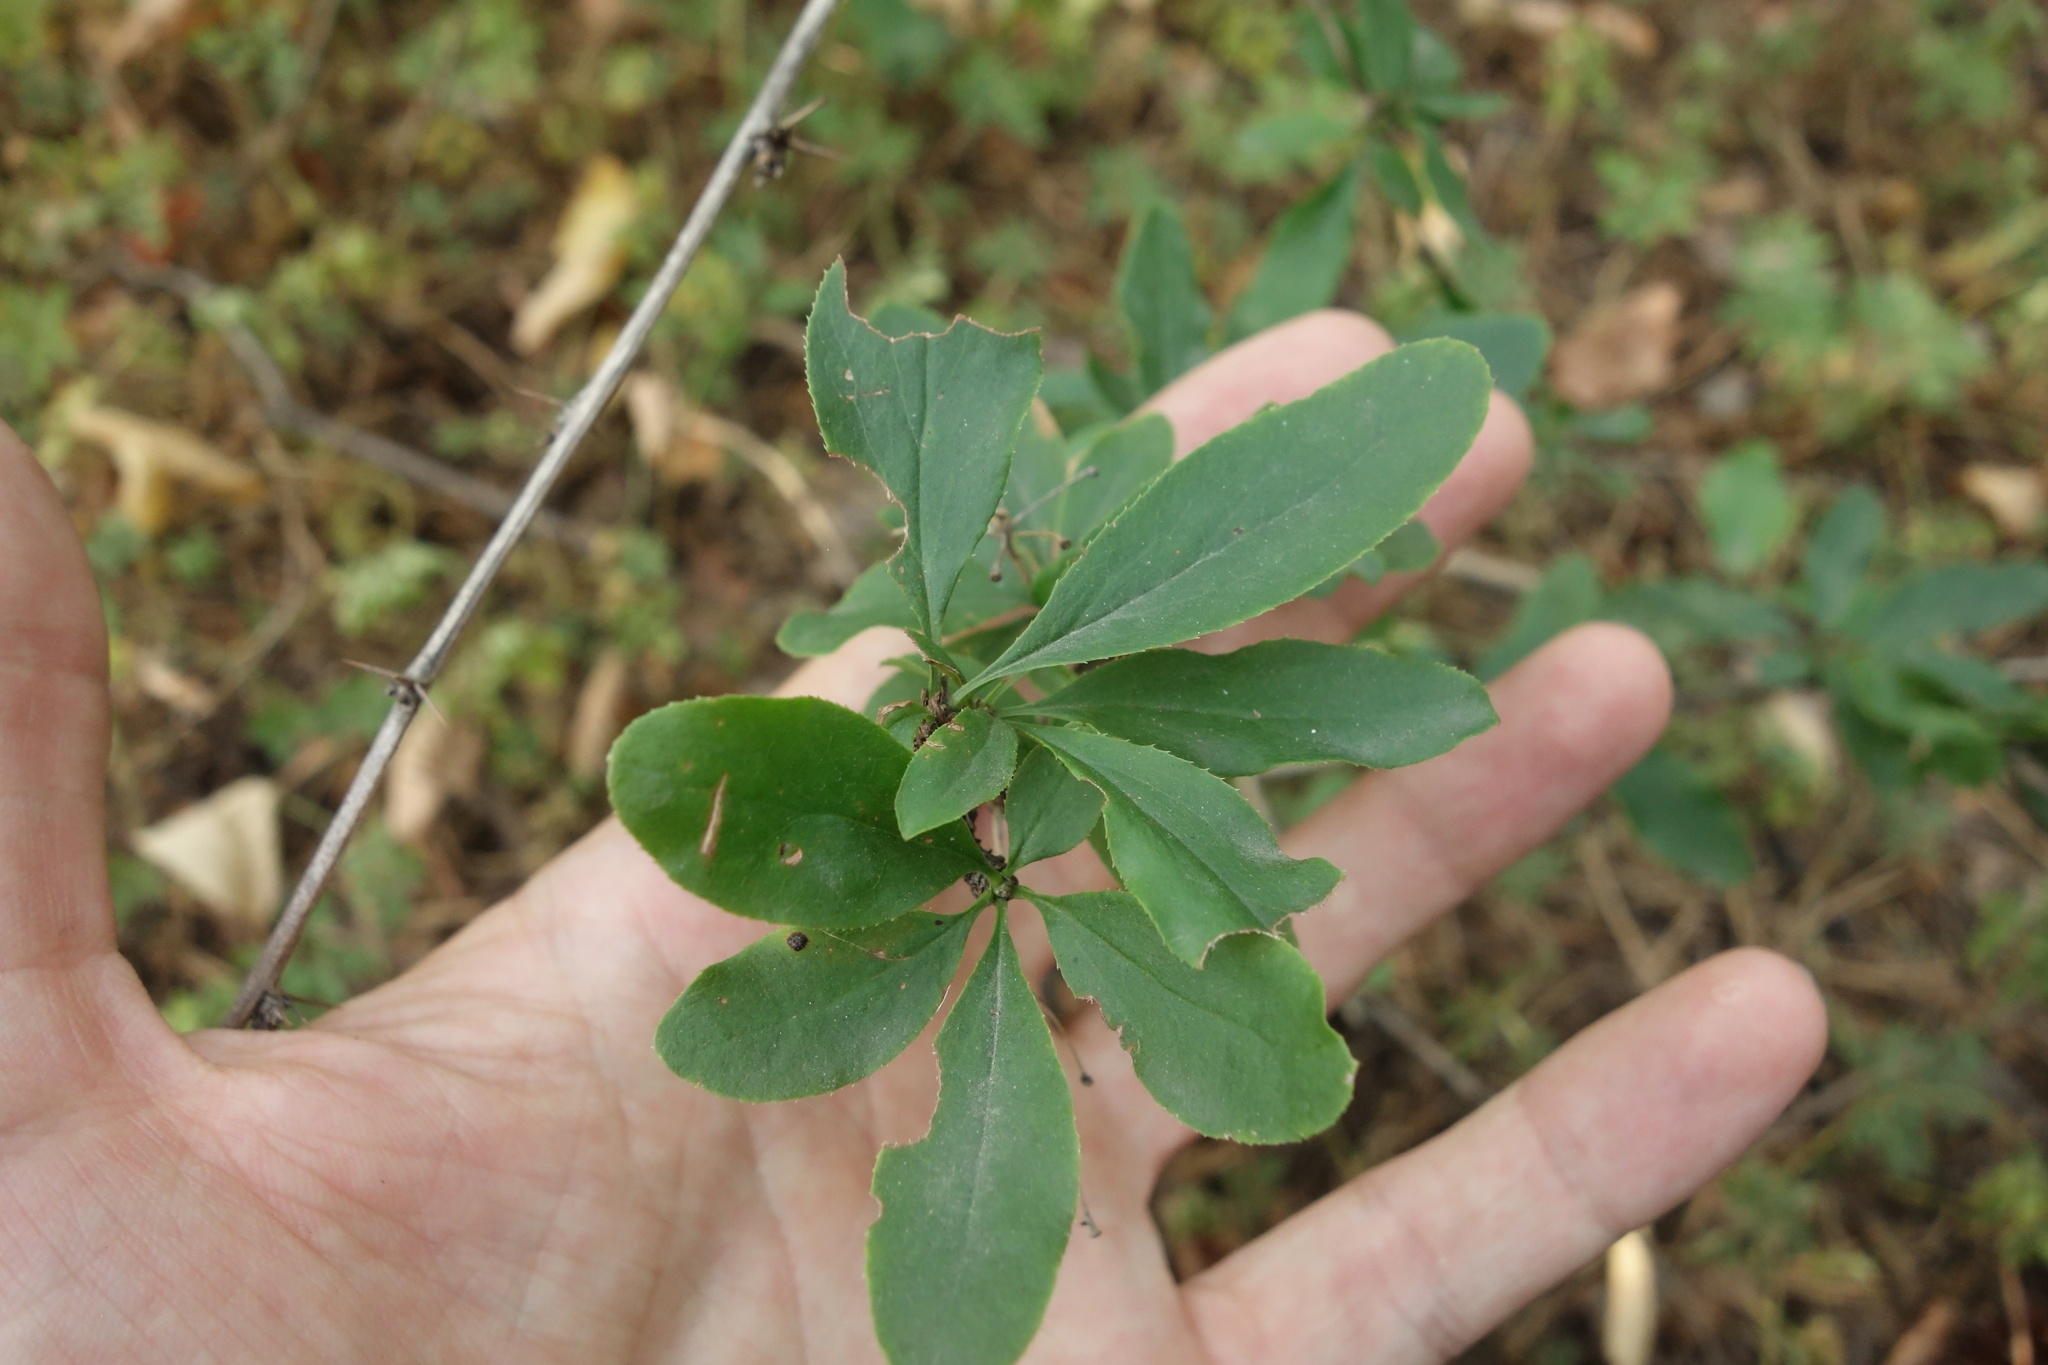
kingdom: Plantae
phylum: Tracheophyta
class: Magnoliopsida
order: Ranunculales
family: Berberidaceae
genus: Berberis
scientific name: Berberis vulgaris
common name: Barberry
